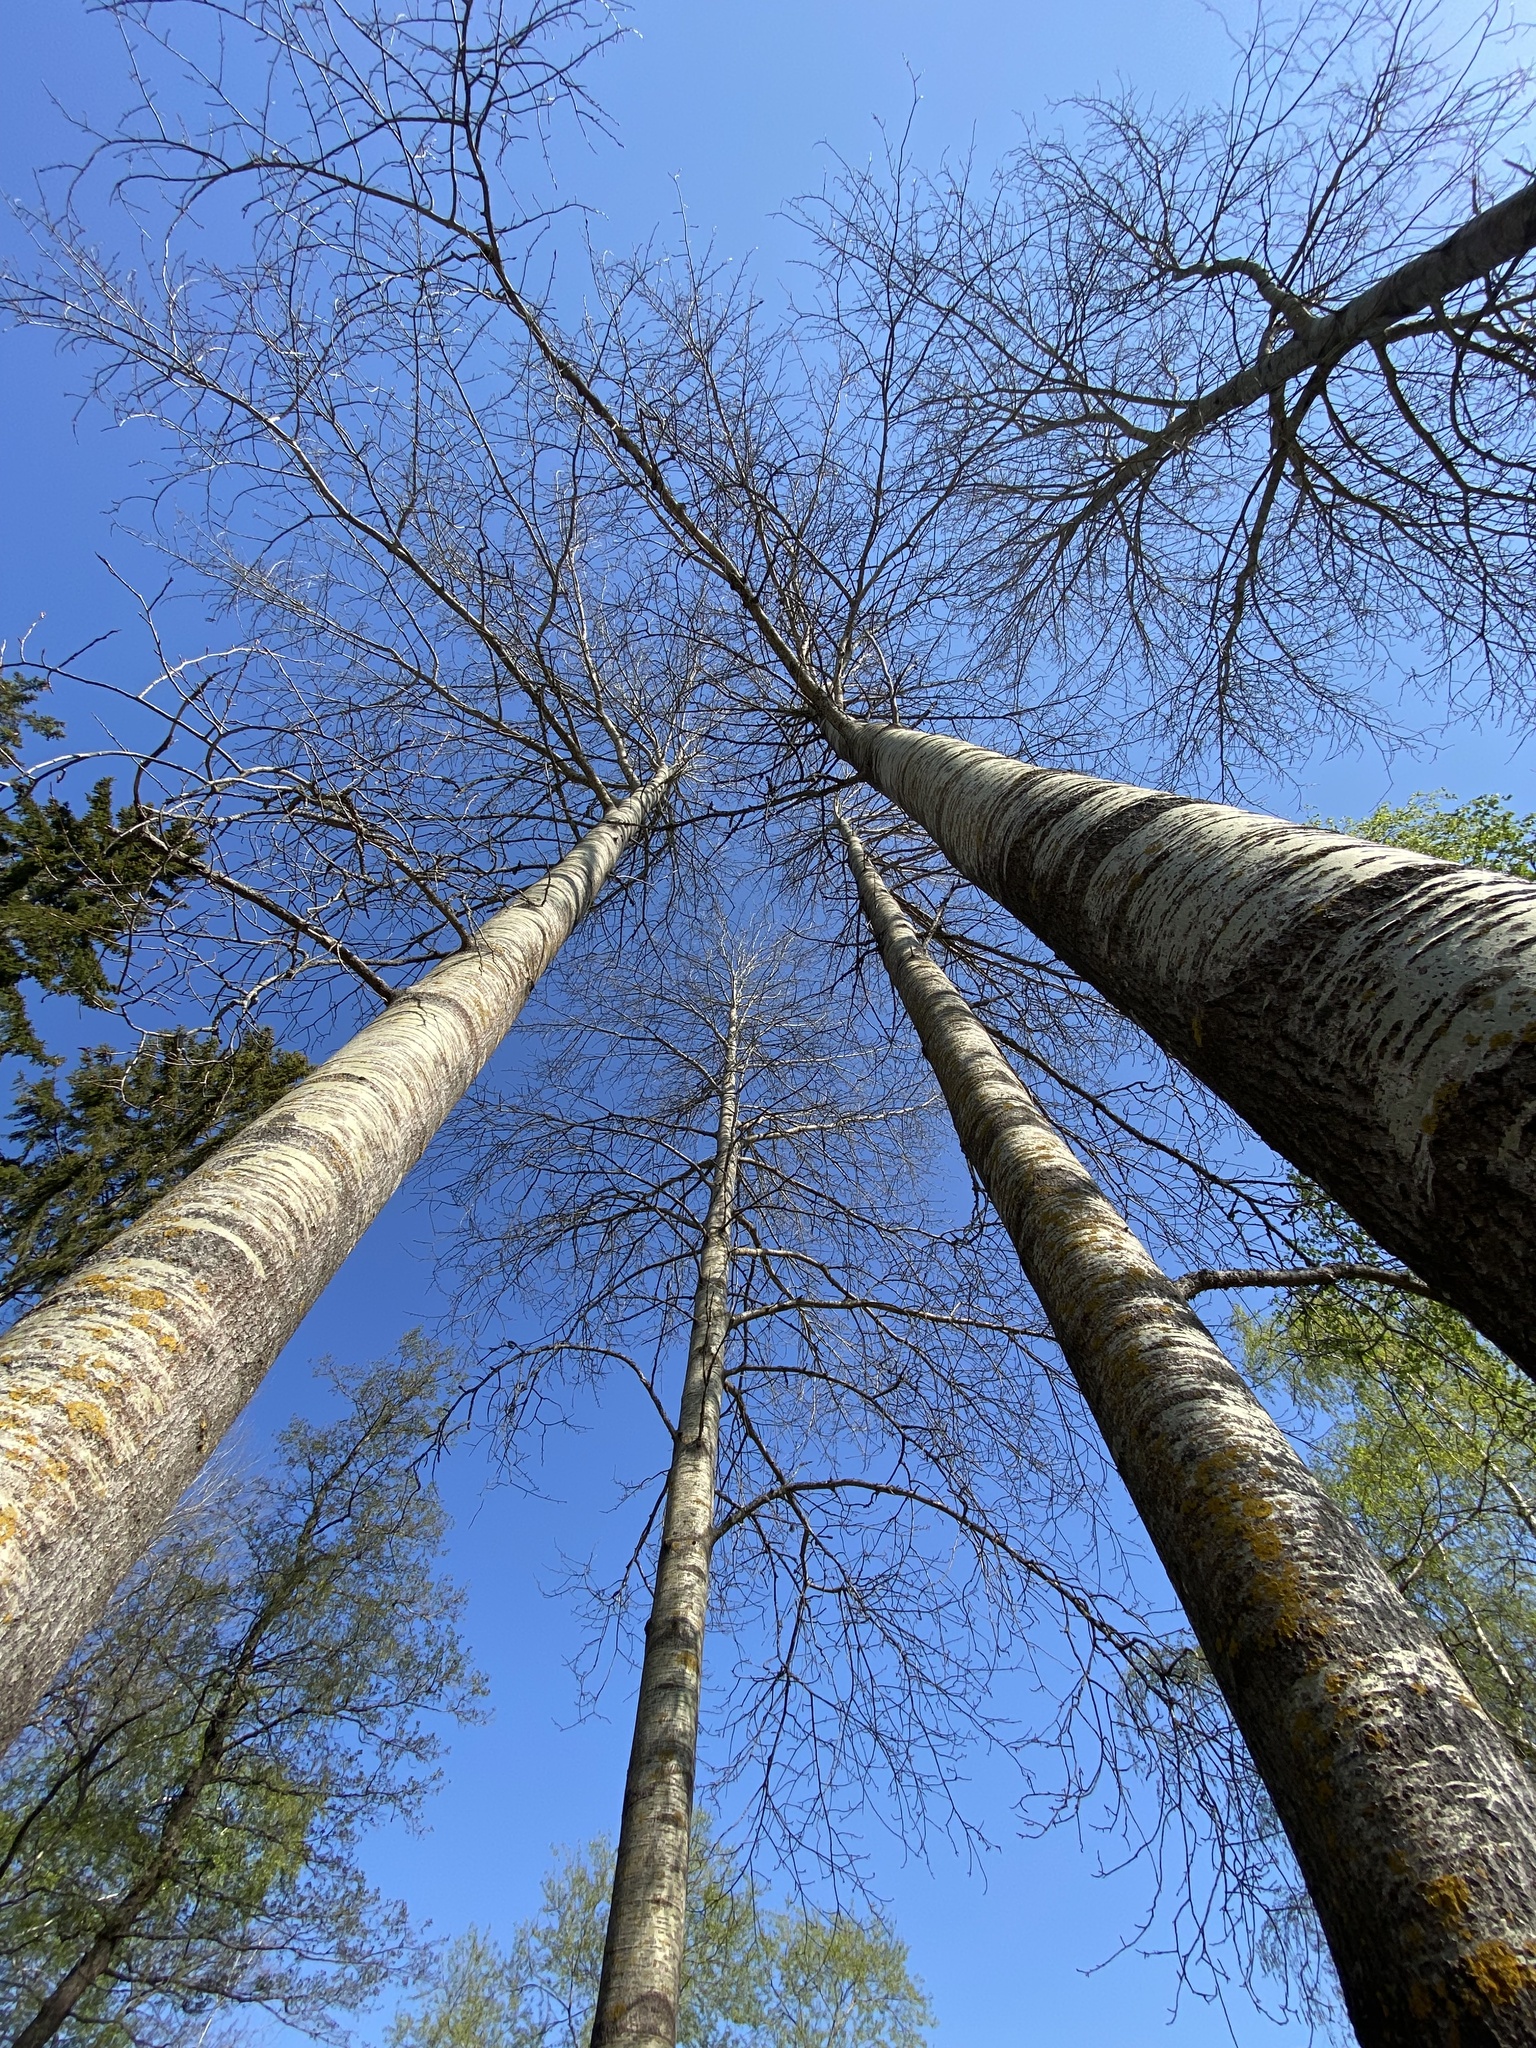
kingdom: Plantae
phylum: Tracheophyta
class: Magnoliopsida
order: Malpighiales
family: Salicaceae
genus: Populus
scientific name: Populus tremula
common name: European aspen
